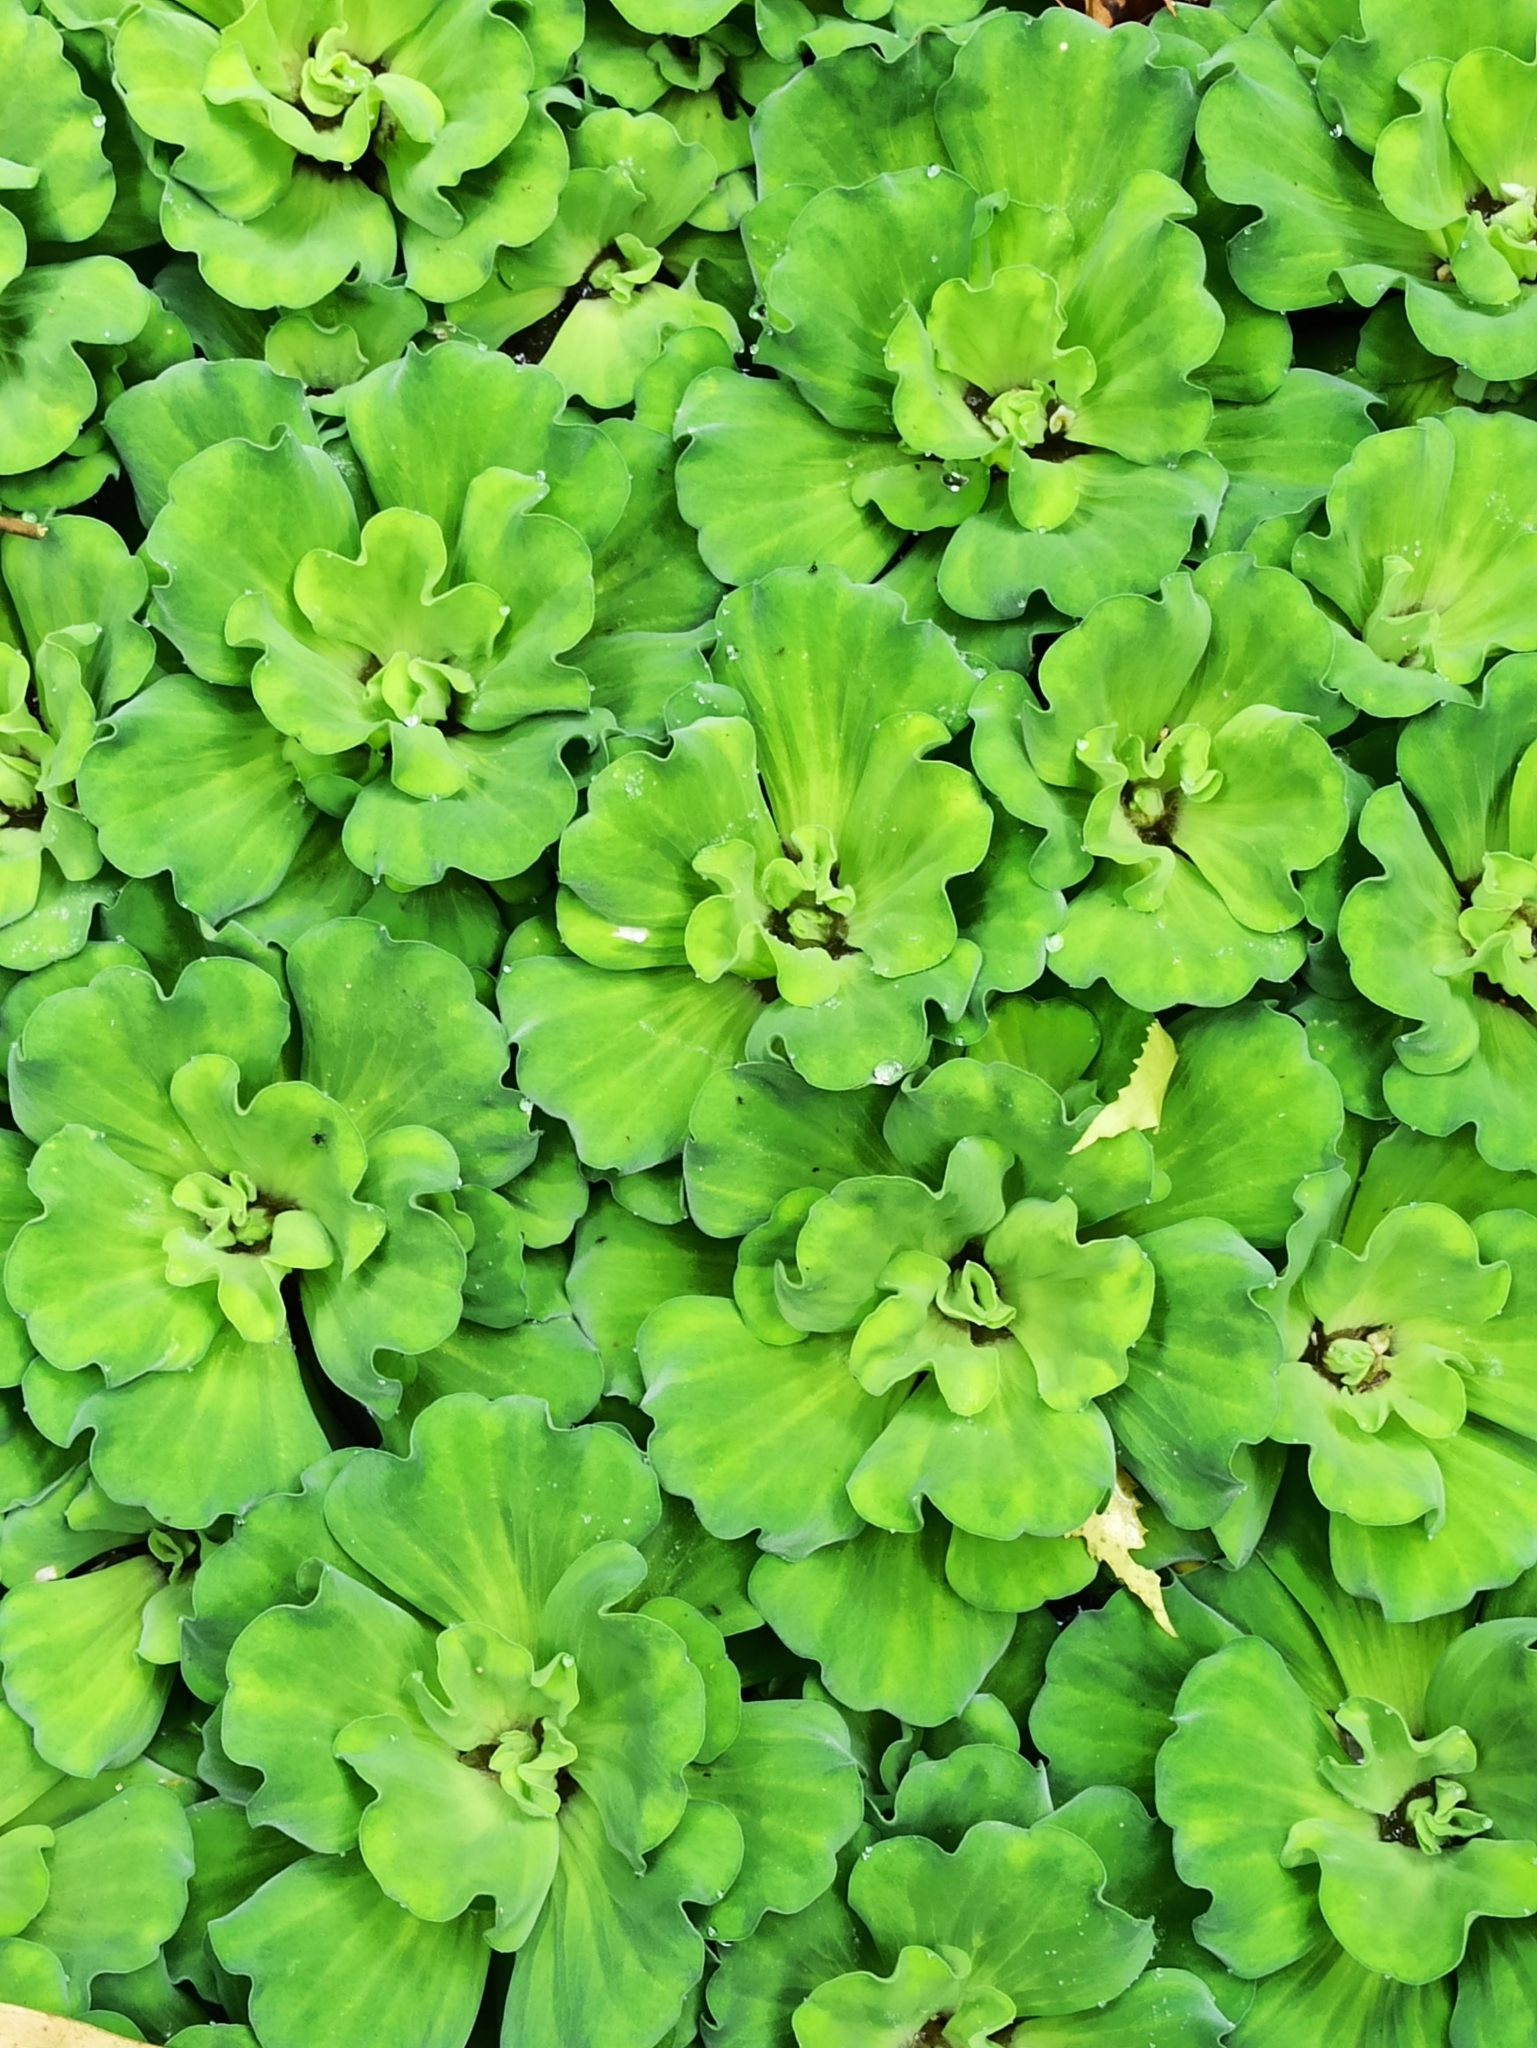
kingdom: Plantae
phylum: Tracheophyta
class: Liliopsida
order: Alismatales
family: Araceae
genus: Pistia
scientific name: Pistia stratiotes
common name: Water lettuce
